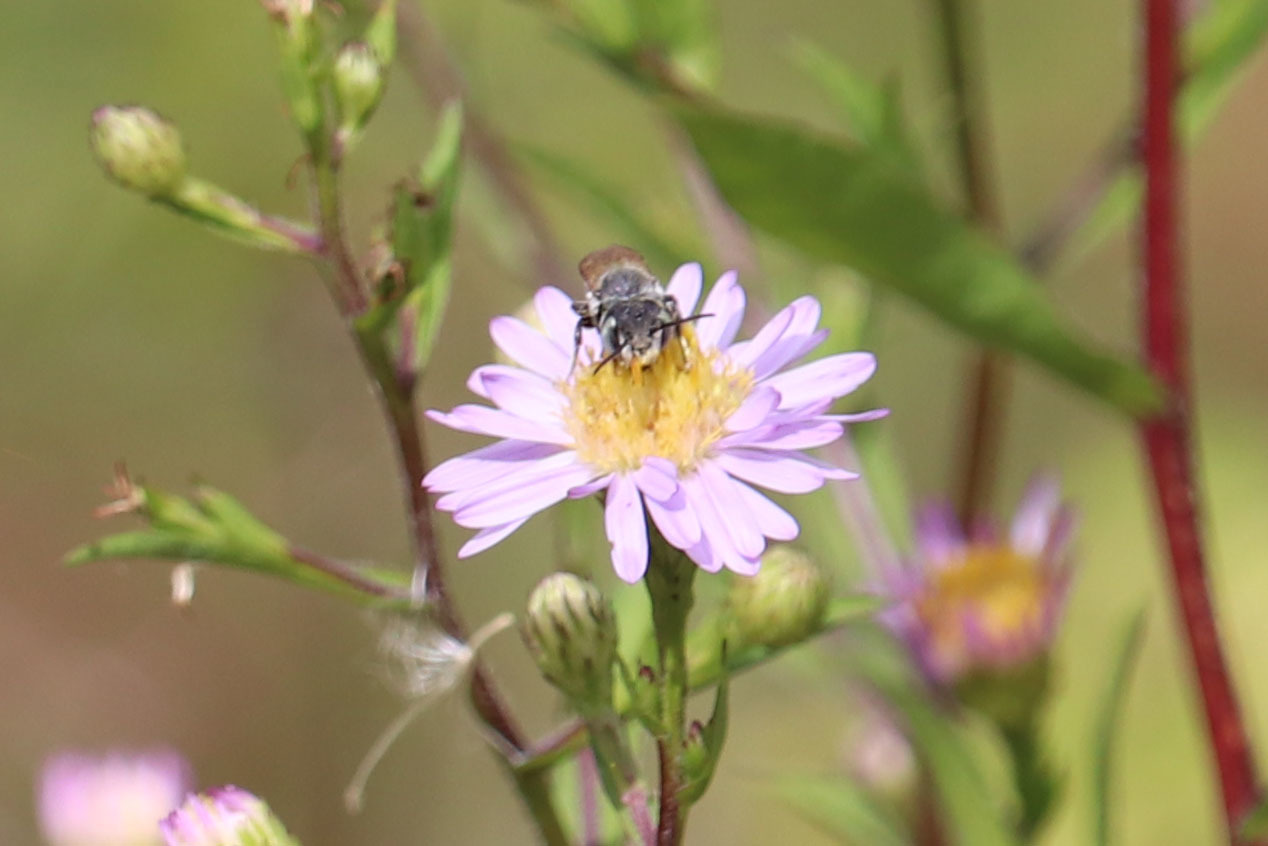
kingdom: Animalia
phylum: Arthropoda
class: Insecta
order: Hymenoptera
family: Megachilidae
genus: Megachile
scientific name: Megachile rotundata
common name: Alfalfa leafcutting bee
